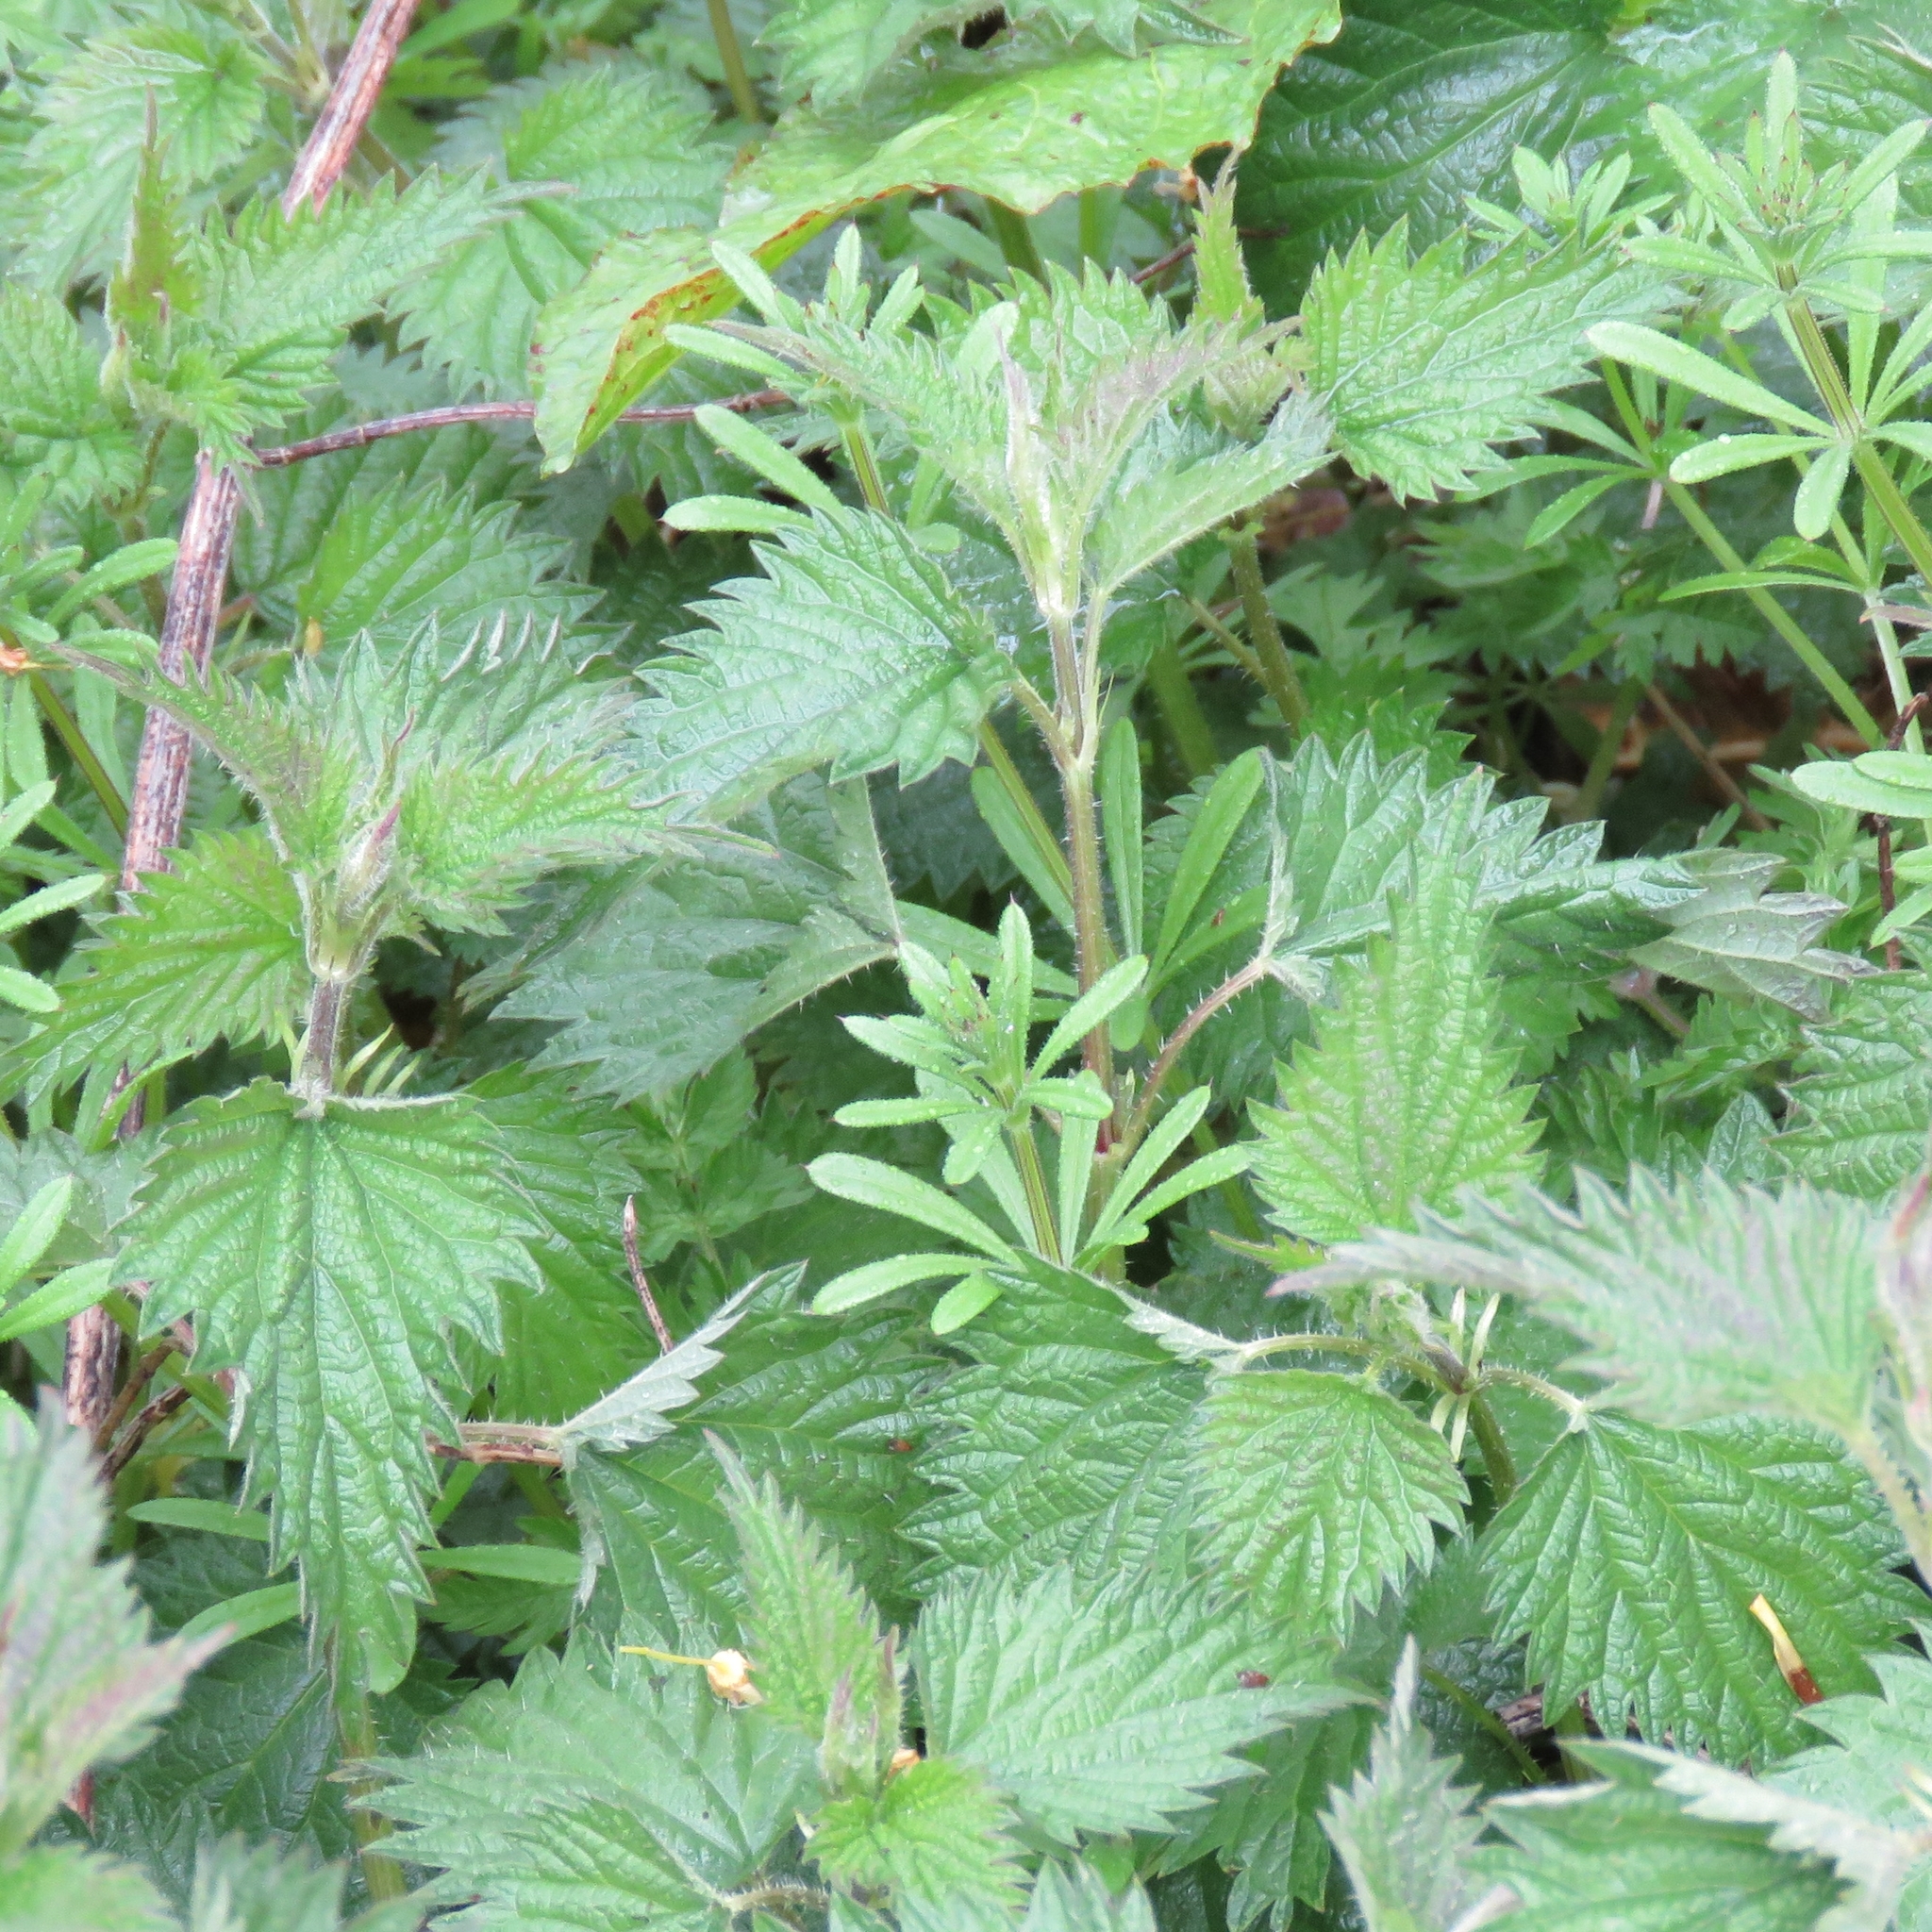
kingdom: Plantae
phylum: Tracheophyta
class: Magnoliopsida
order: Gentianales
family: Rubiaceae
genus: Galium
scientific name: Galium aparine
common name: Cleavers
